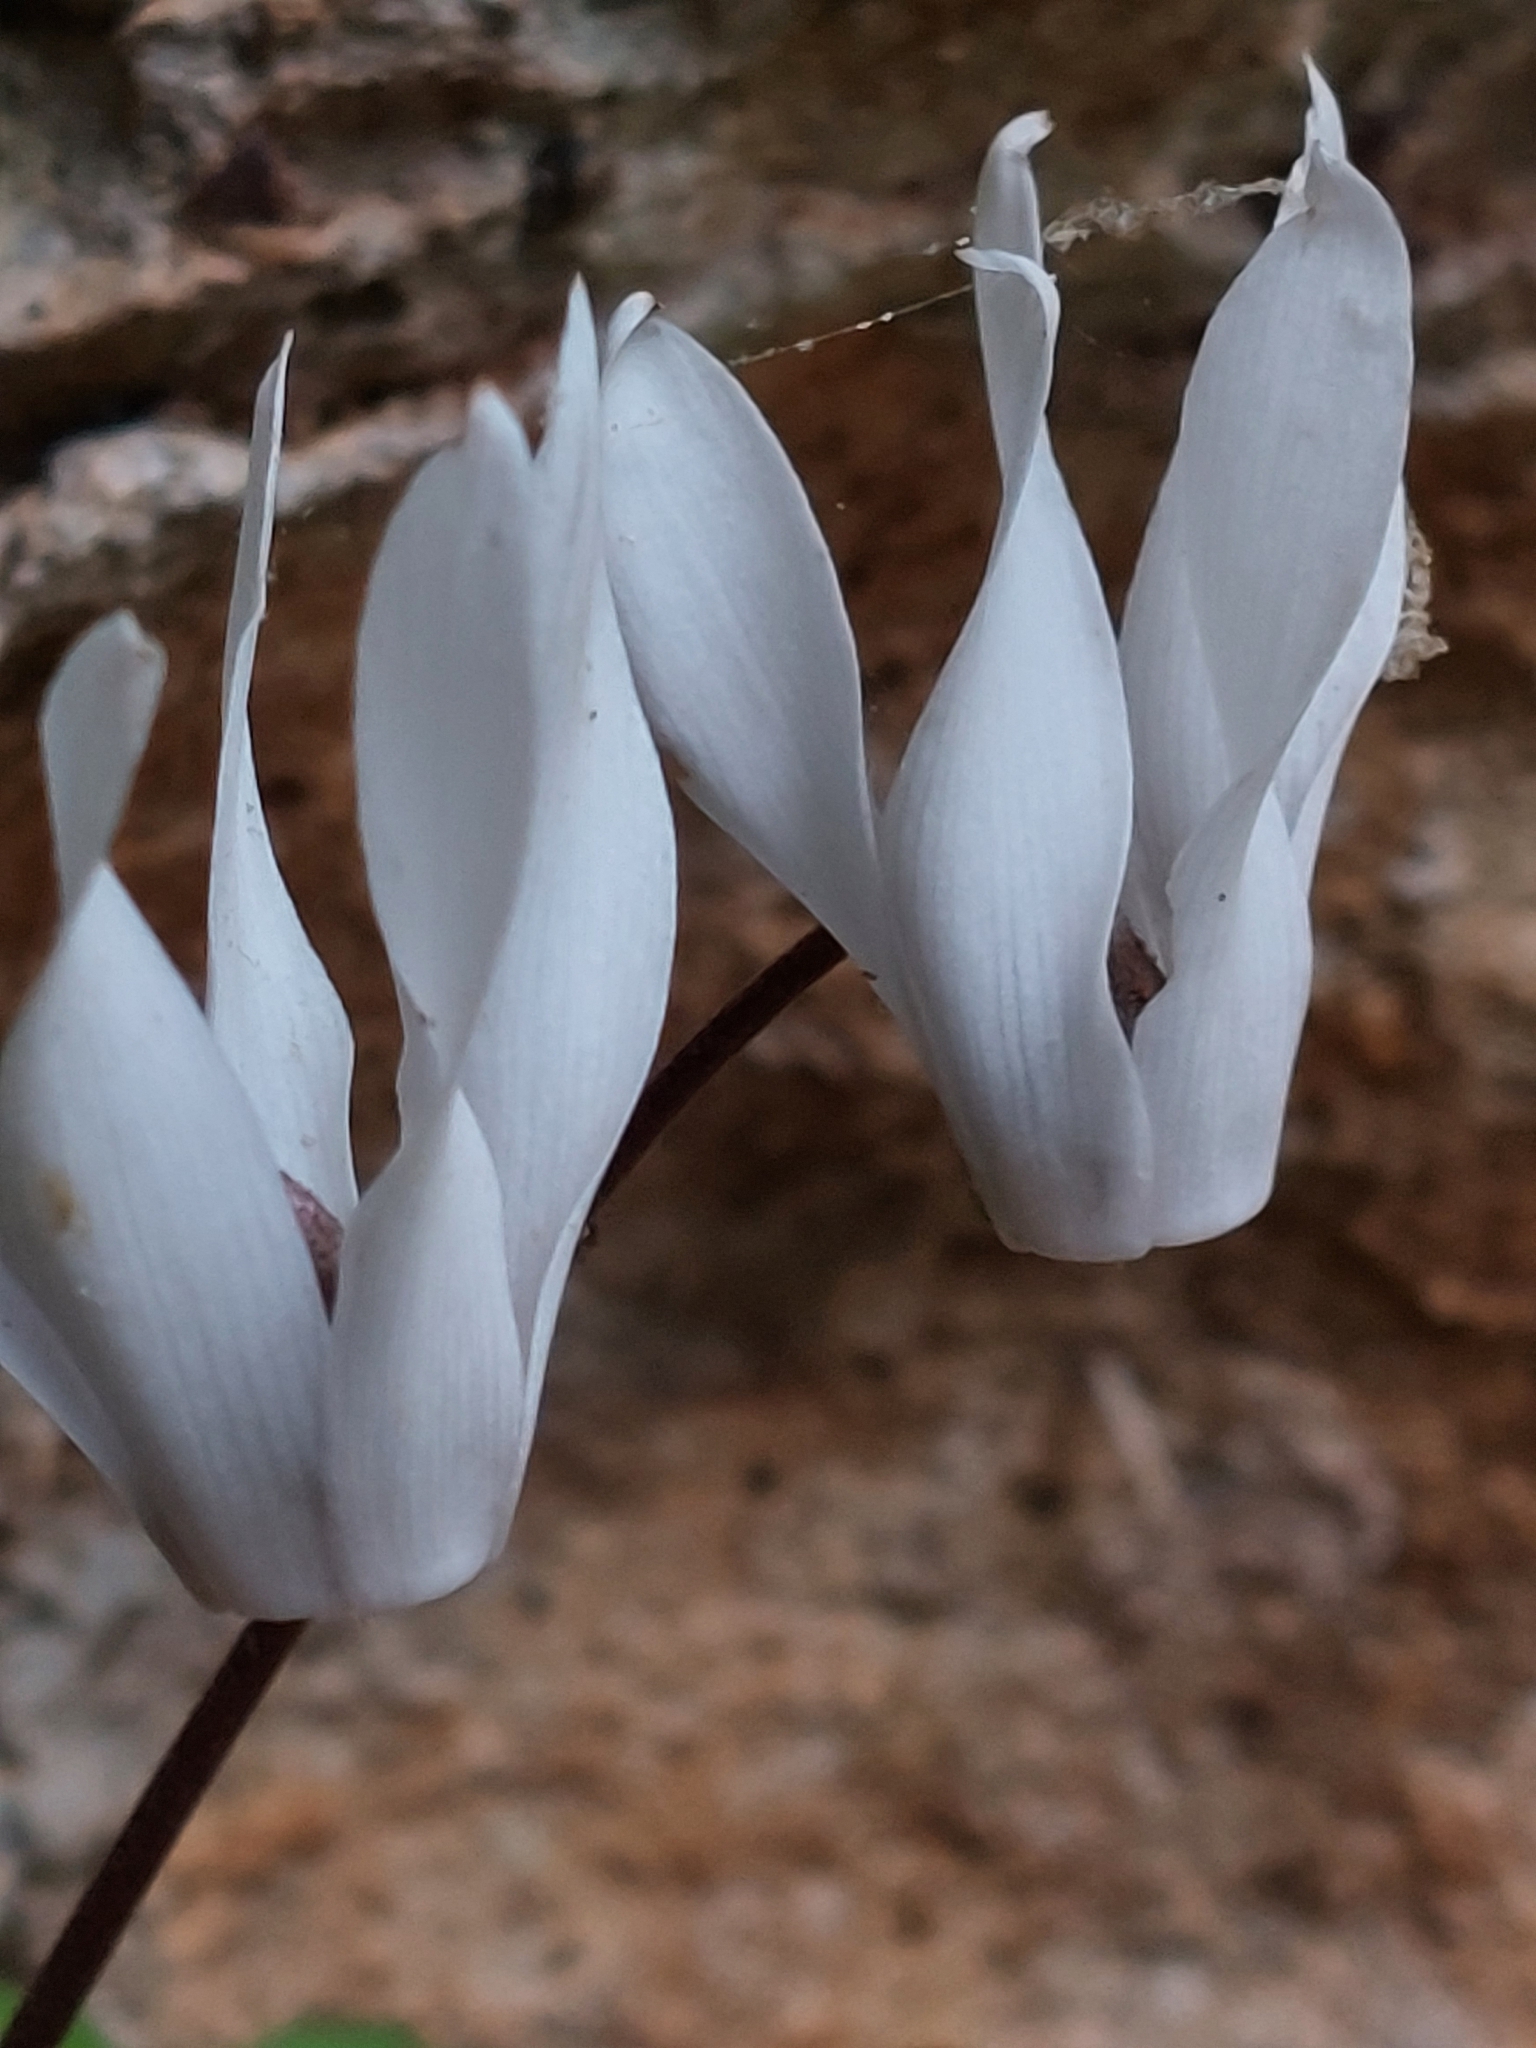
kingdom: Plantae
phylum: Tracheophyta
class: Magnoliopsida
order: Ericales
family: Primulaceae
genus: Cyclamen
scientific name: Cyclamen creticum
